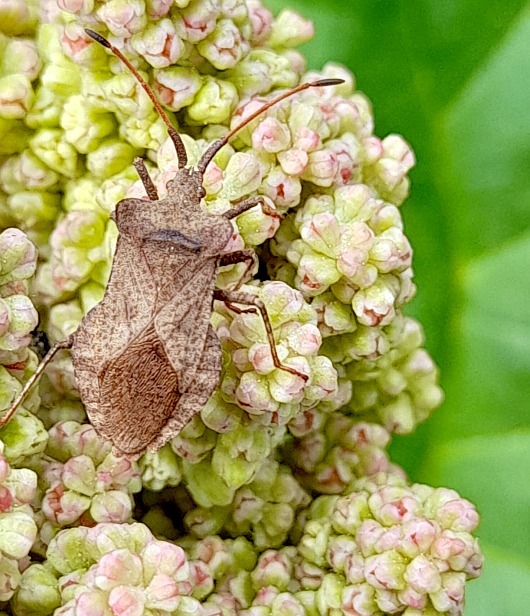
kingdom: Animalia
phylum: Arthropoda
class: Insecta
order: Hemiptera
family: Coreidae
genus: Coreus
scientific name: Coreus marginatus
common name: Dock bug
